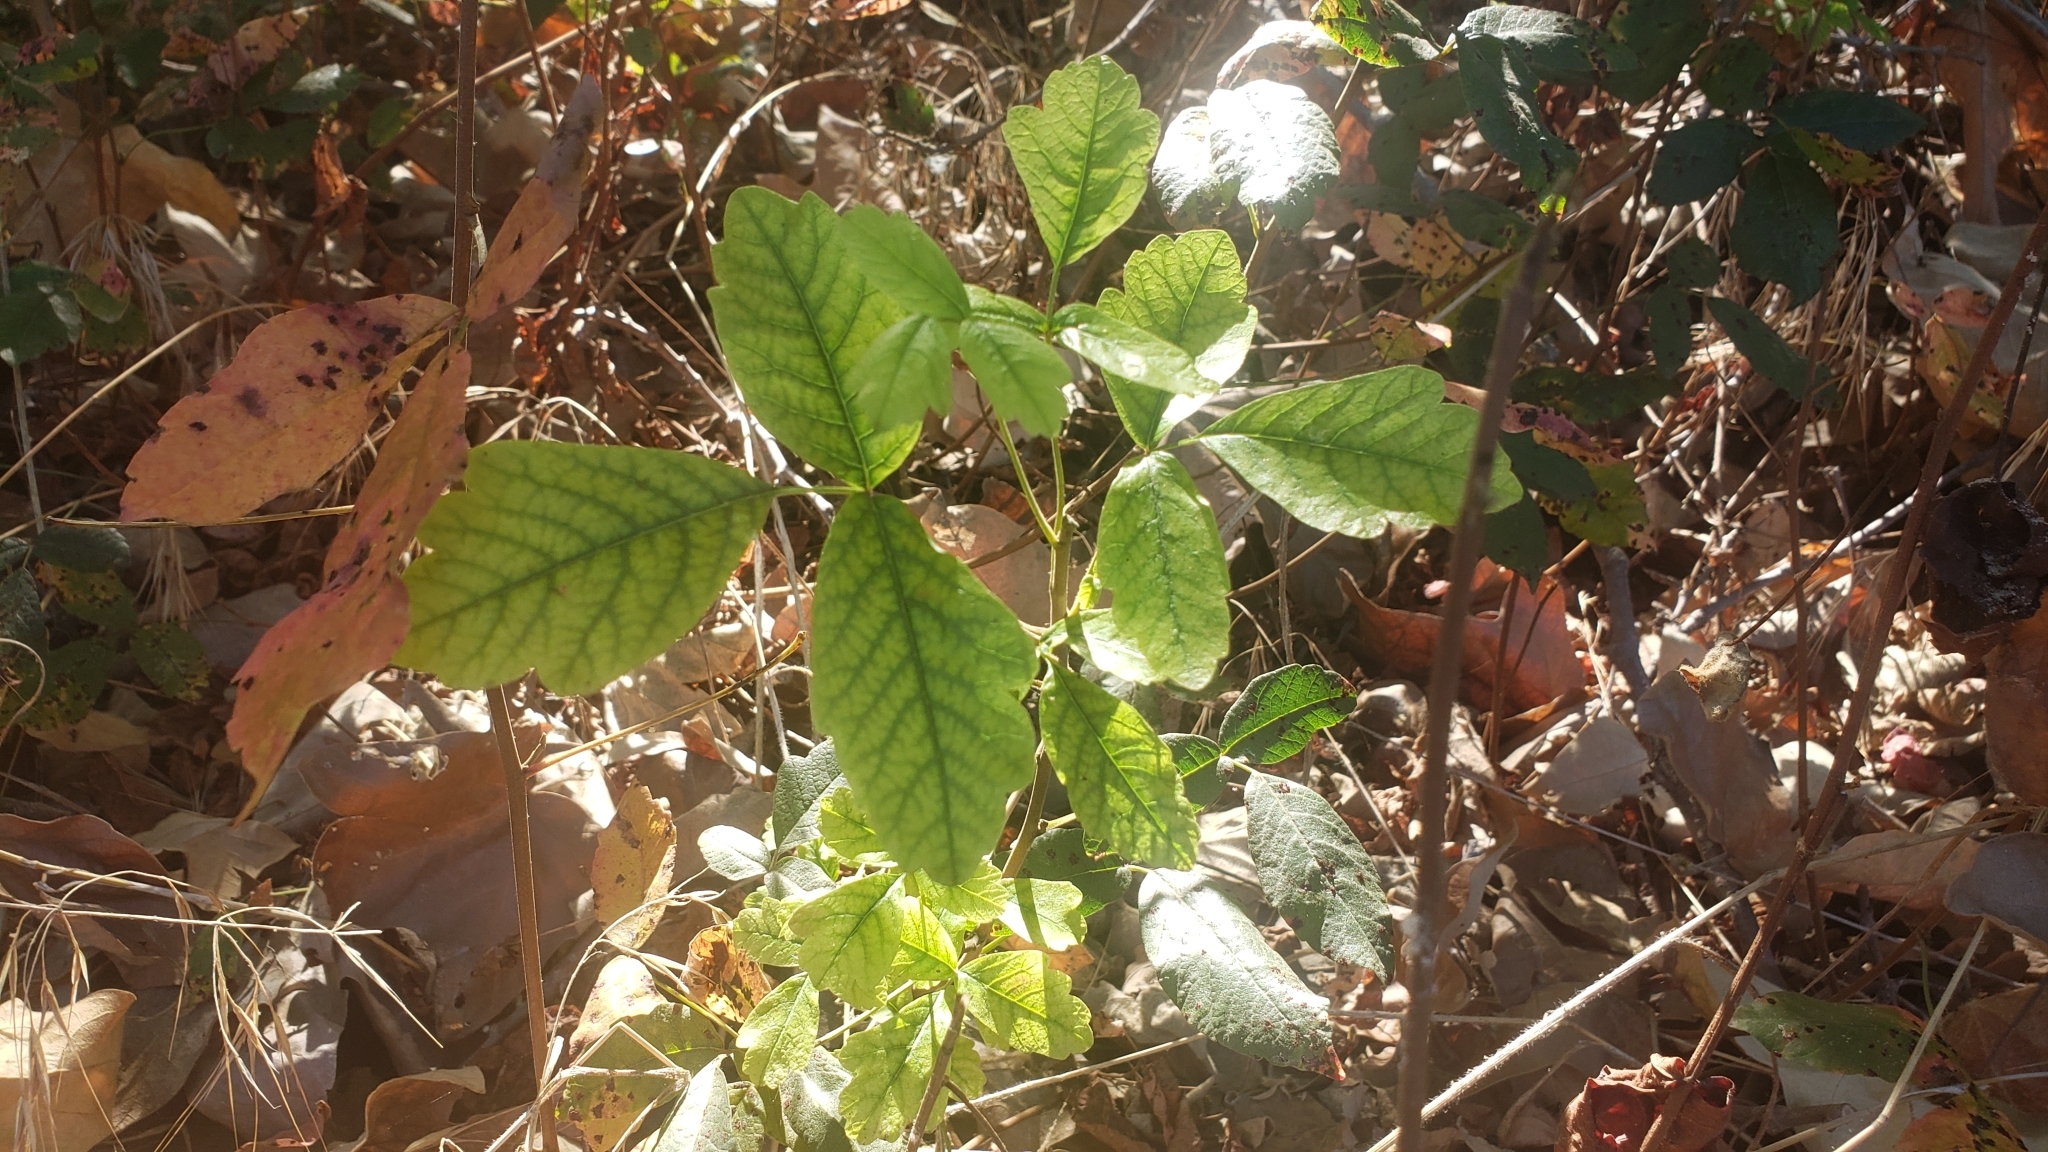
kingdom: Plantae
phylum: Tracheophyta
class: Magnoliopsida
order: Sapindales
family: Anacardiaceae
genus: Toxicodendron
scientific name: Toxicodendron diversilobum
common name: Pacific poison-oak
